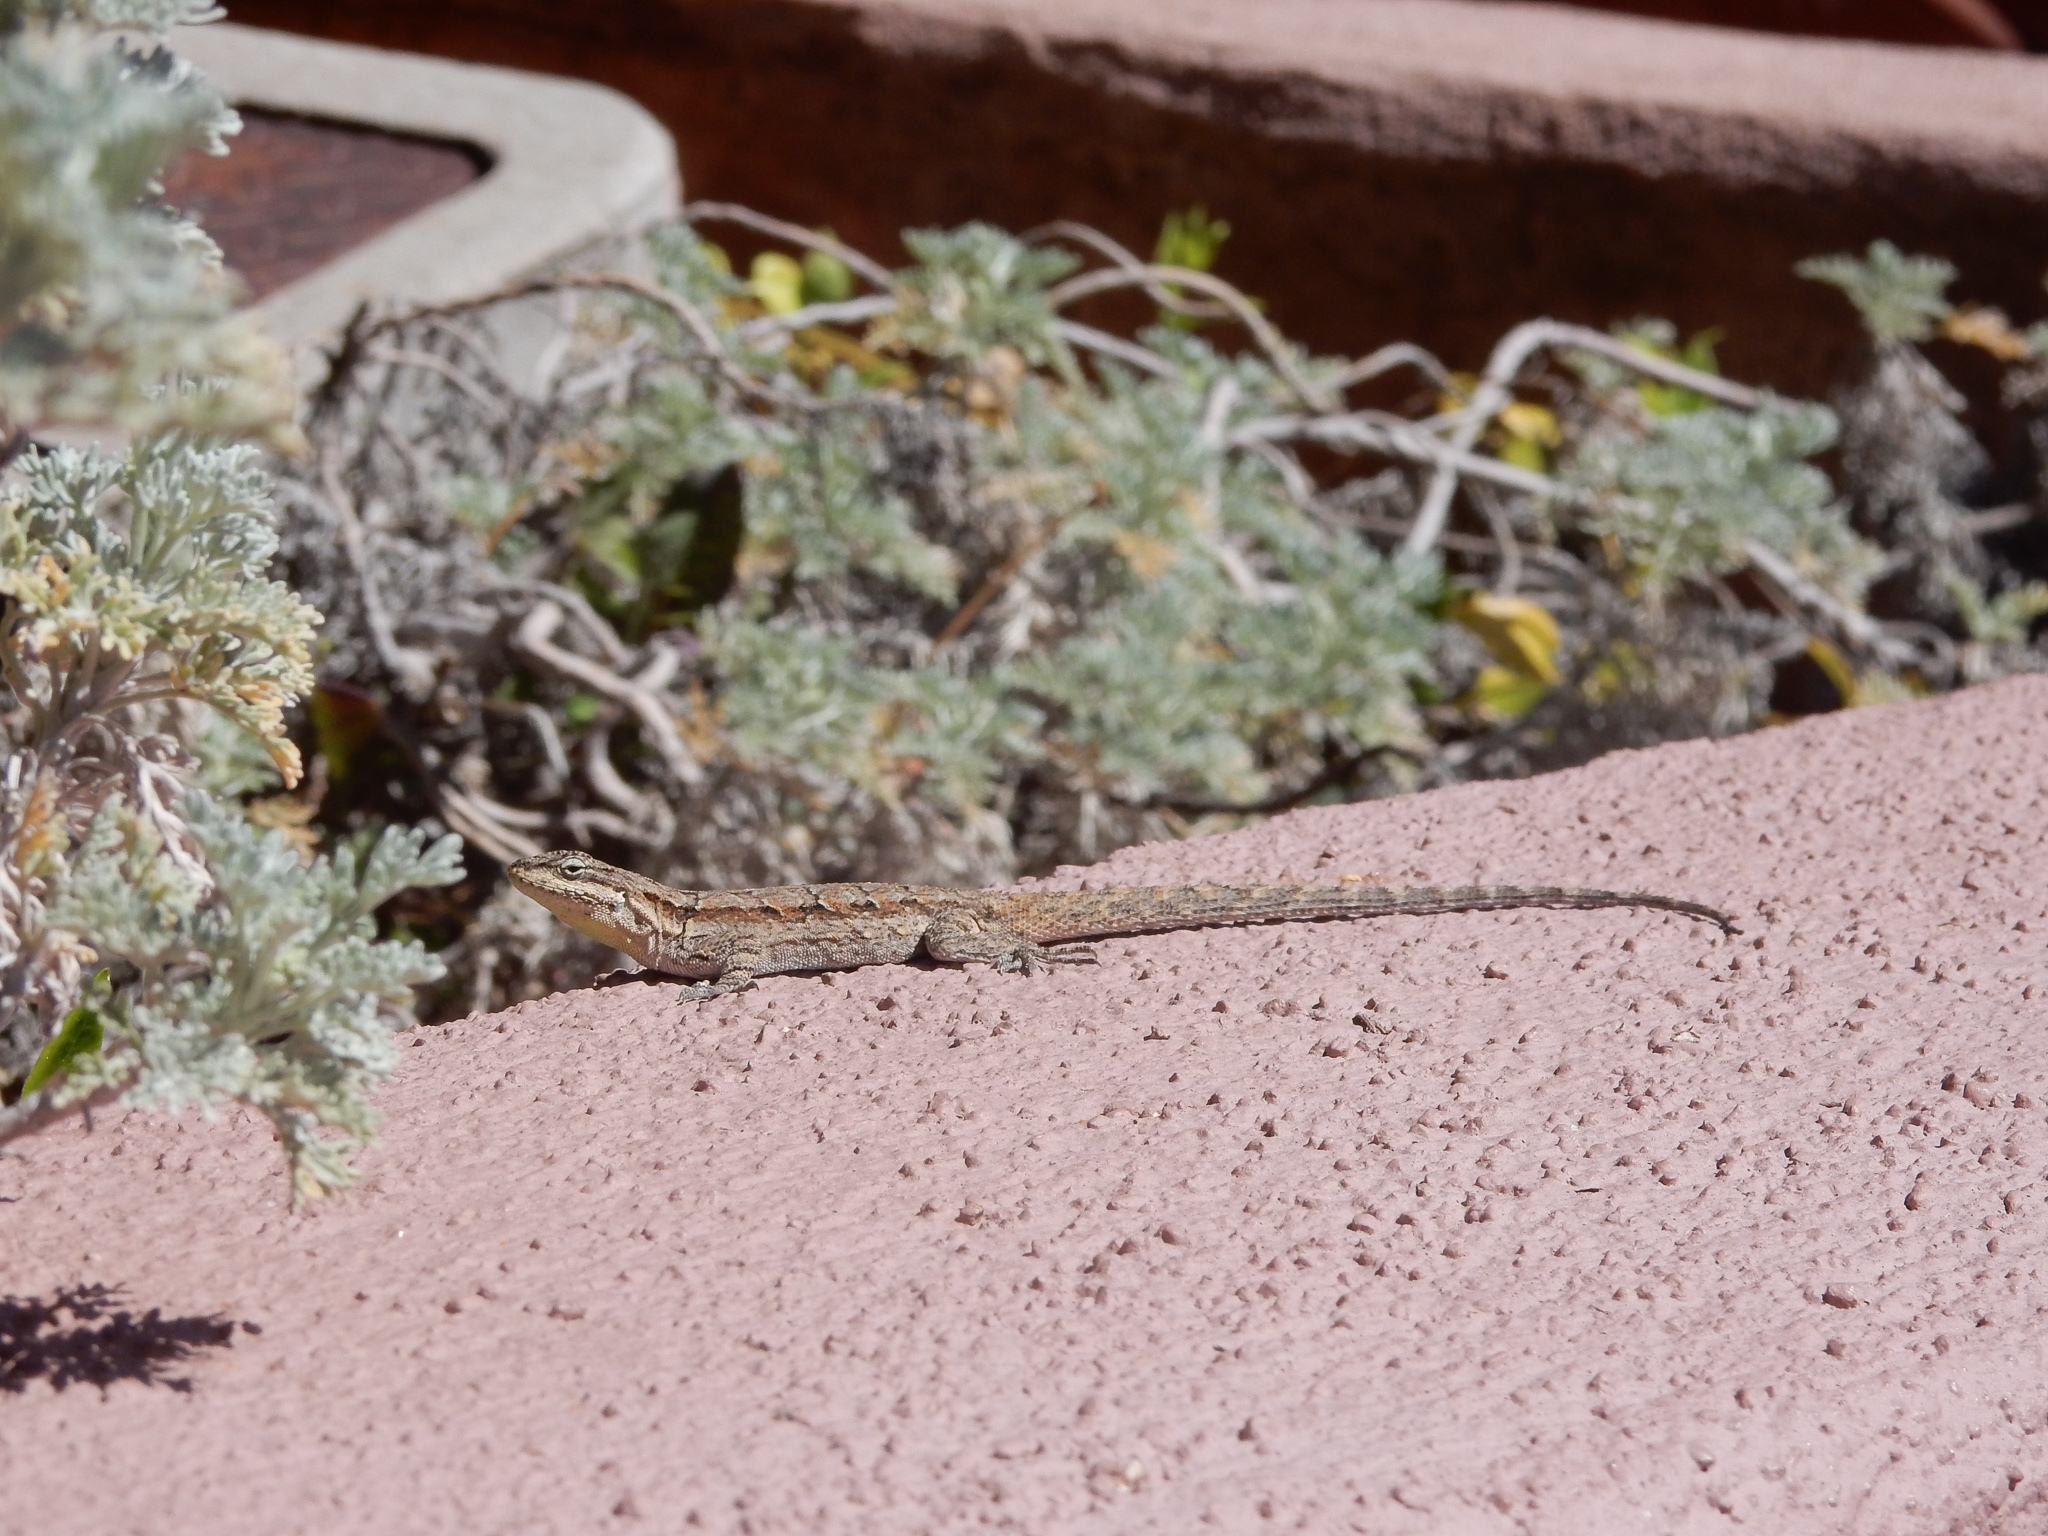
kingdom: Animalia
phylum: Chordata
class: Squamata
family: Phrynosomatidae
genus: Urosaurus
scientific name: Urosaurus ornatus
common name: Ornate tree lizard
